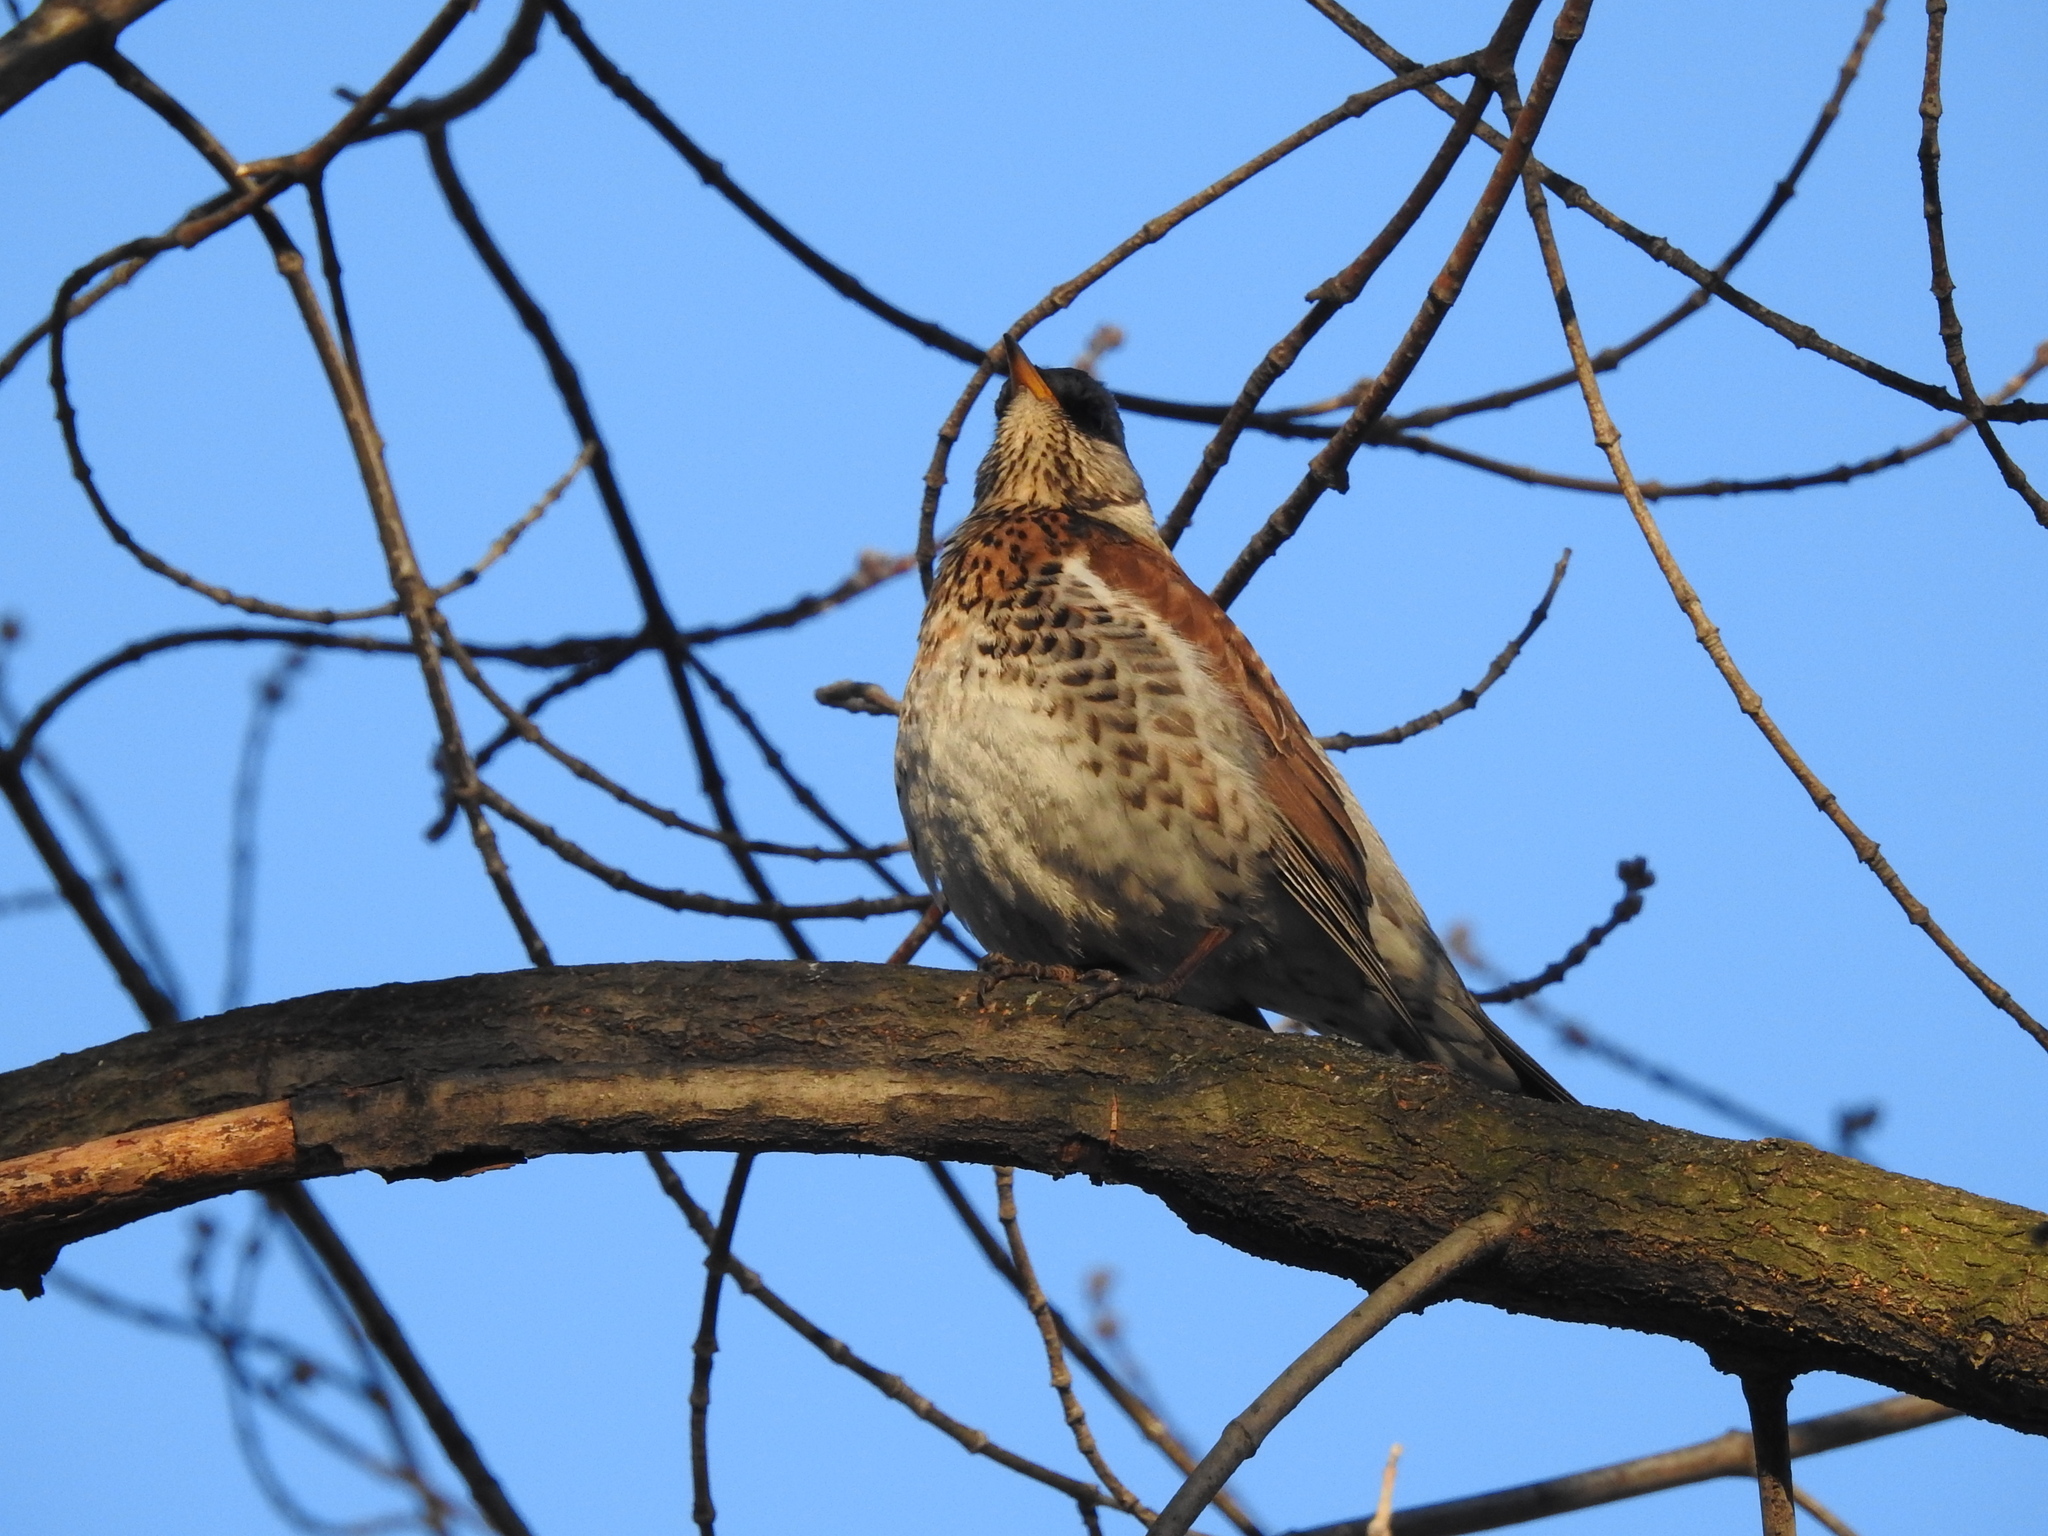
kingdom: Animalia
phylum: Chordata
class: Aves
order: Passeriformes
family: Turdidae
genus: Turdus
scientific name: Turdus pilaris
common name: Fieldfare
